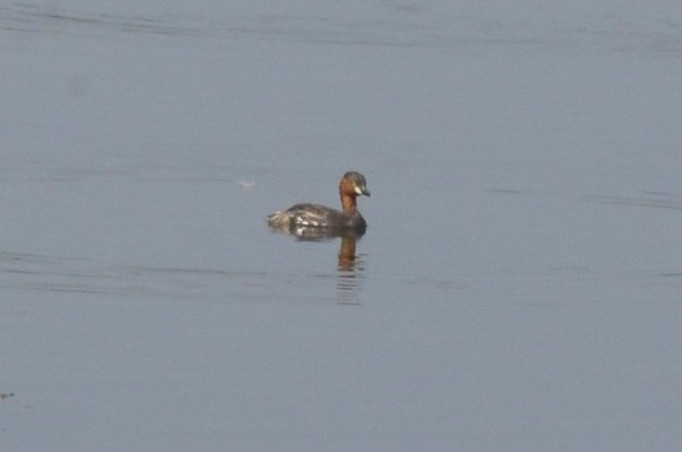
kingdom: Animalia
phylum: Chordata
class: Aves
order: Podicipediformes
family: Podicipedidae
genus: Tachybaptus
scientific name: Tachybaptus ruficollis
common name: Little grebe
